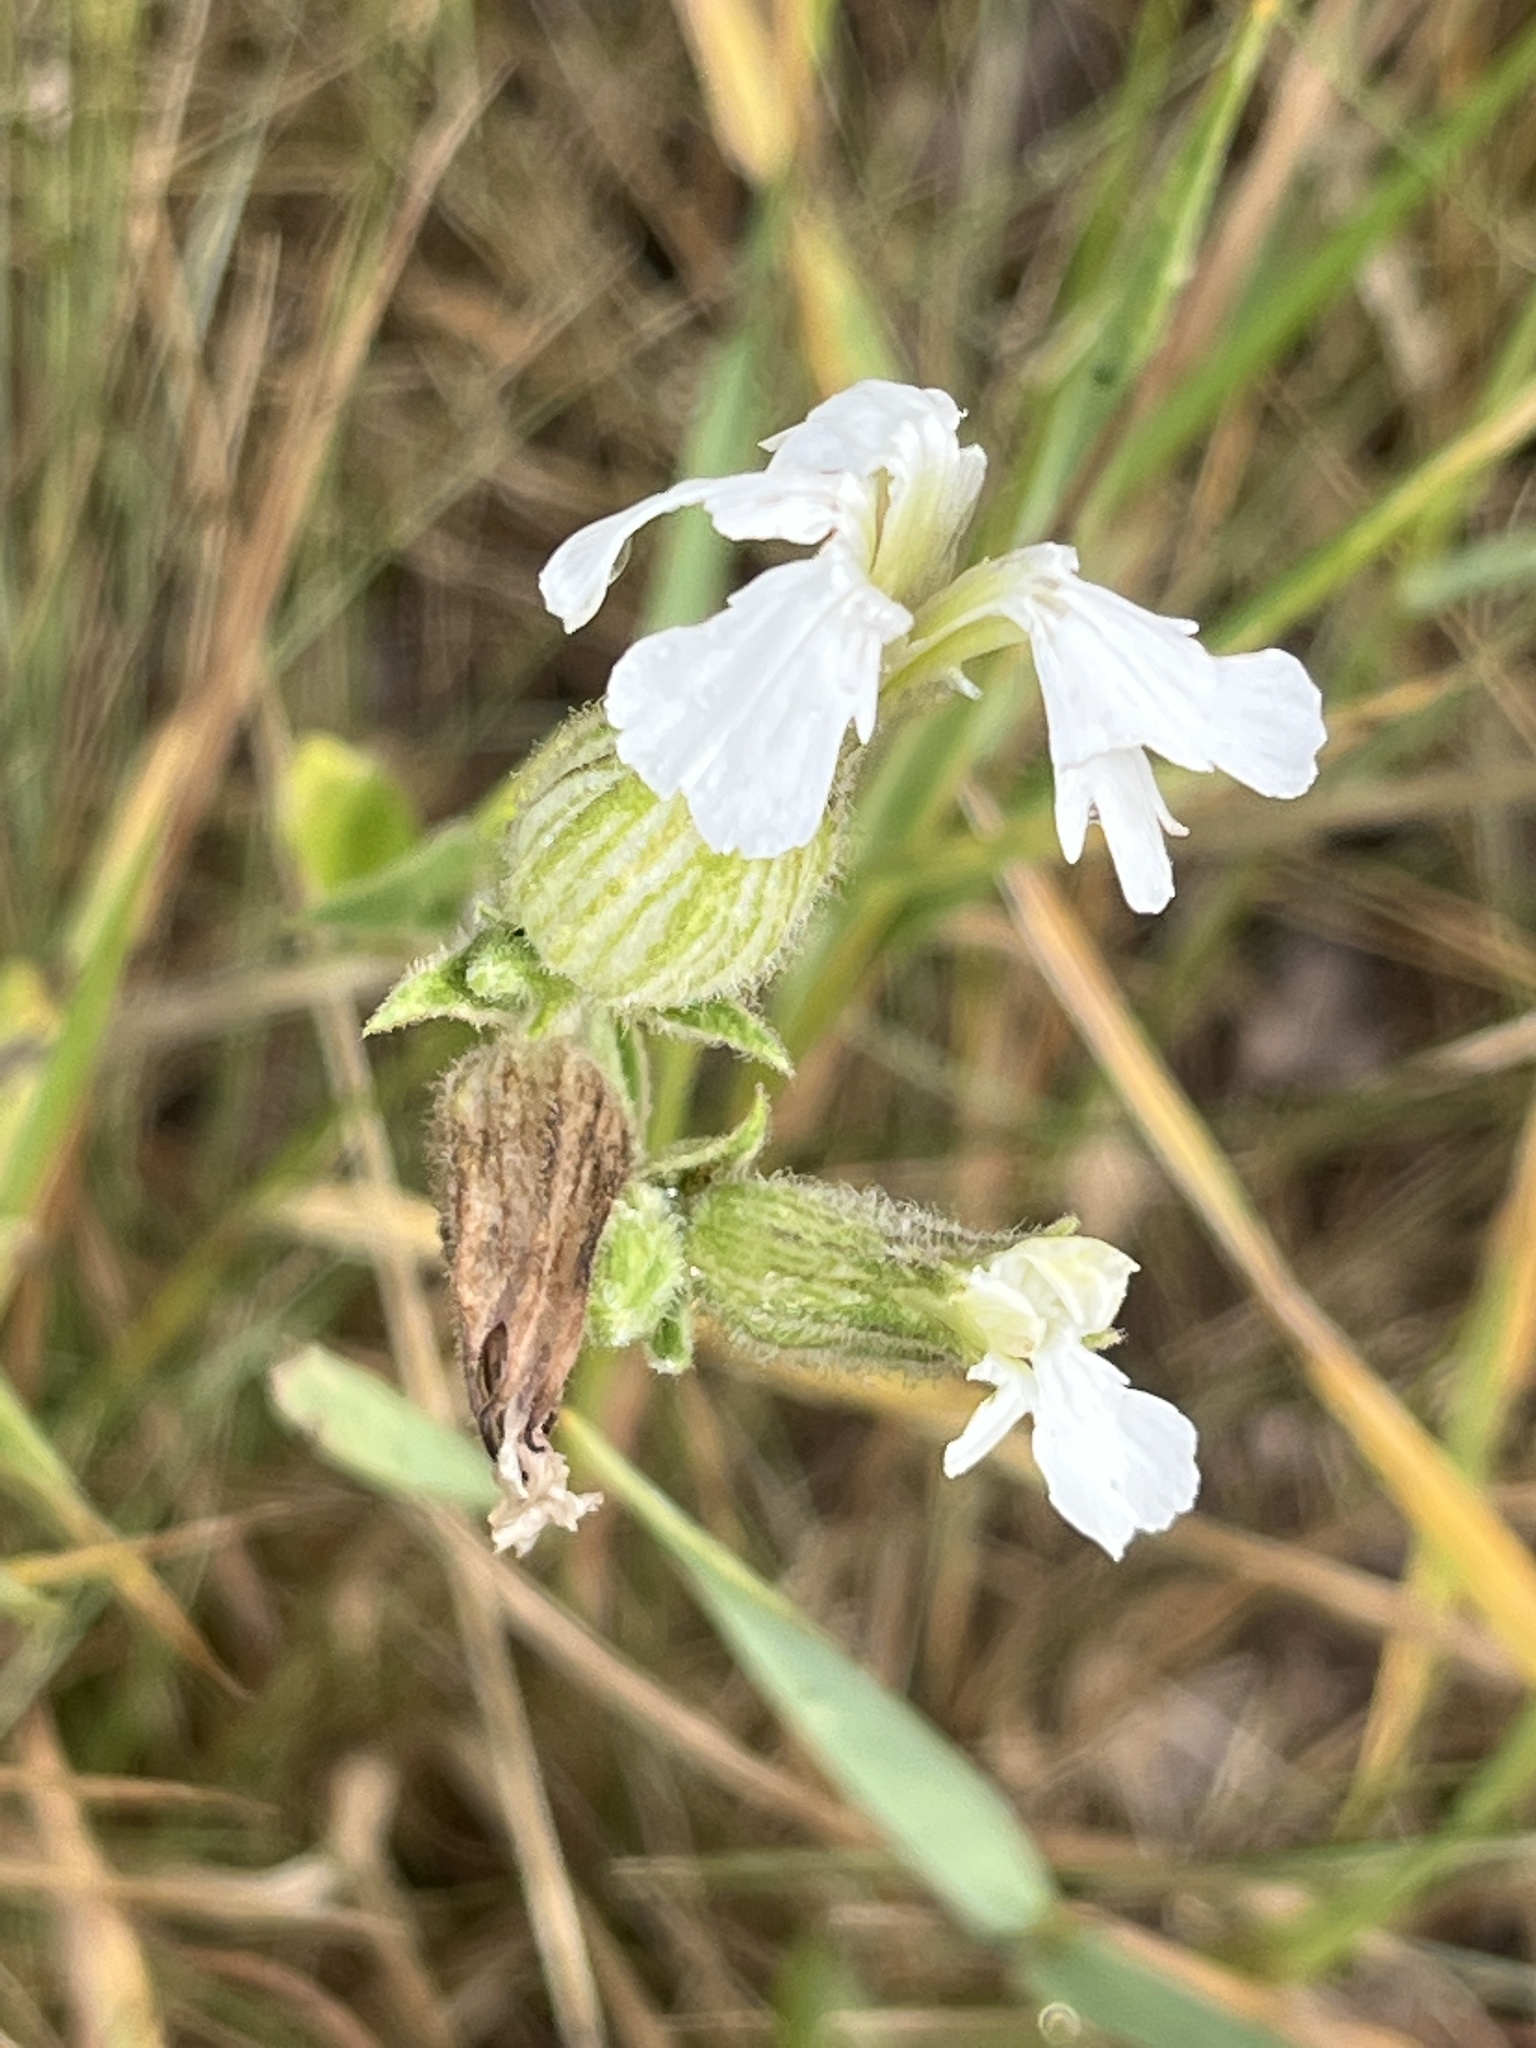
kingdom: Plantae
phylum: Tracheophyta
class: Magnoliopsida
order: Caryophyllales
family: Caryophyllaceae
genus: Silene
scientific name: Silene latifolia
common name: White campion
